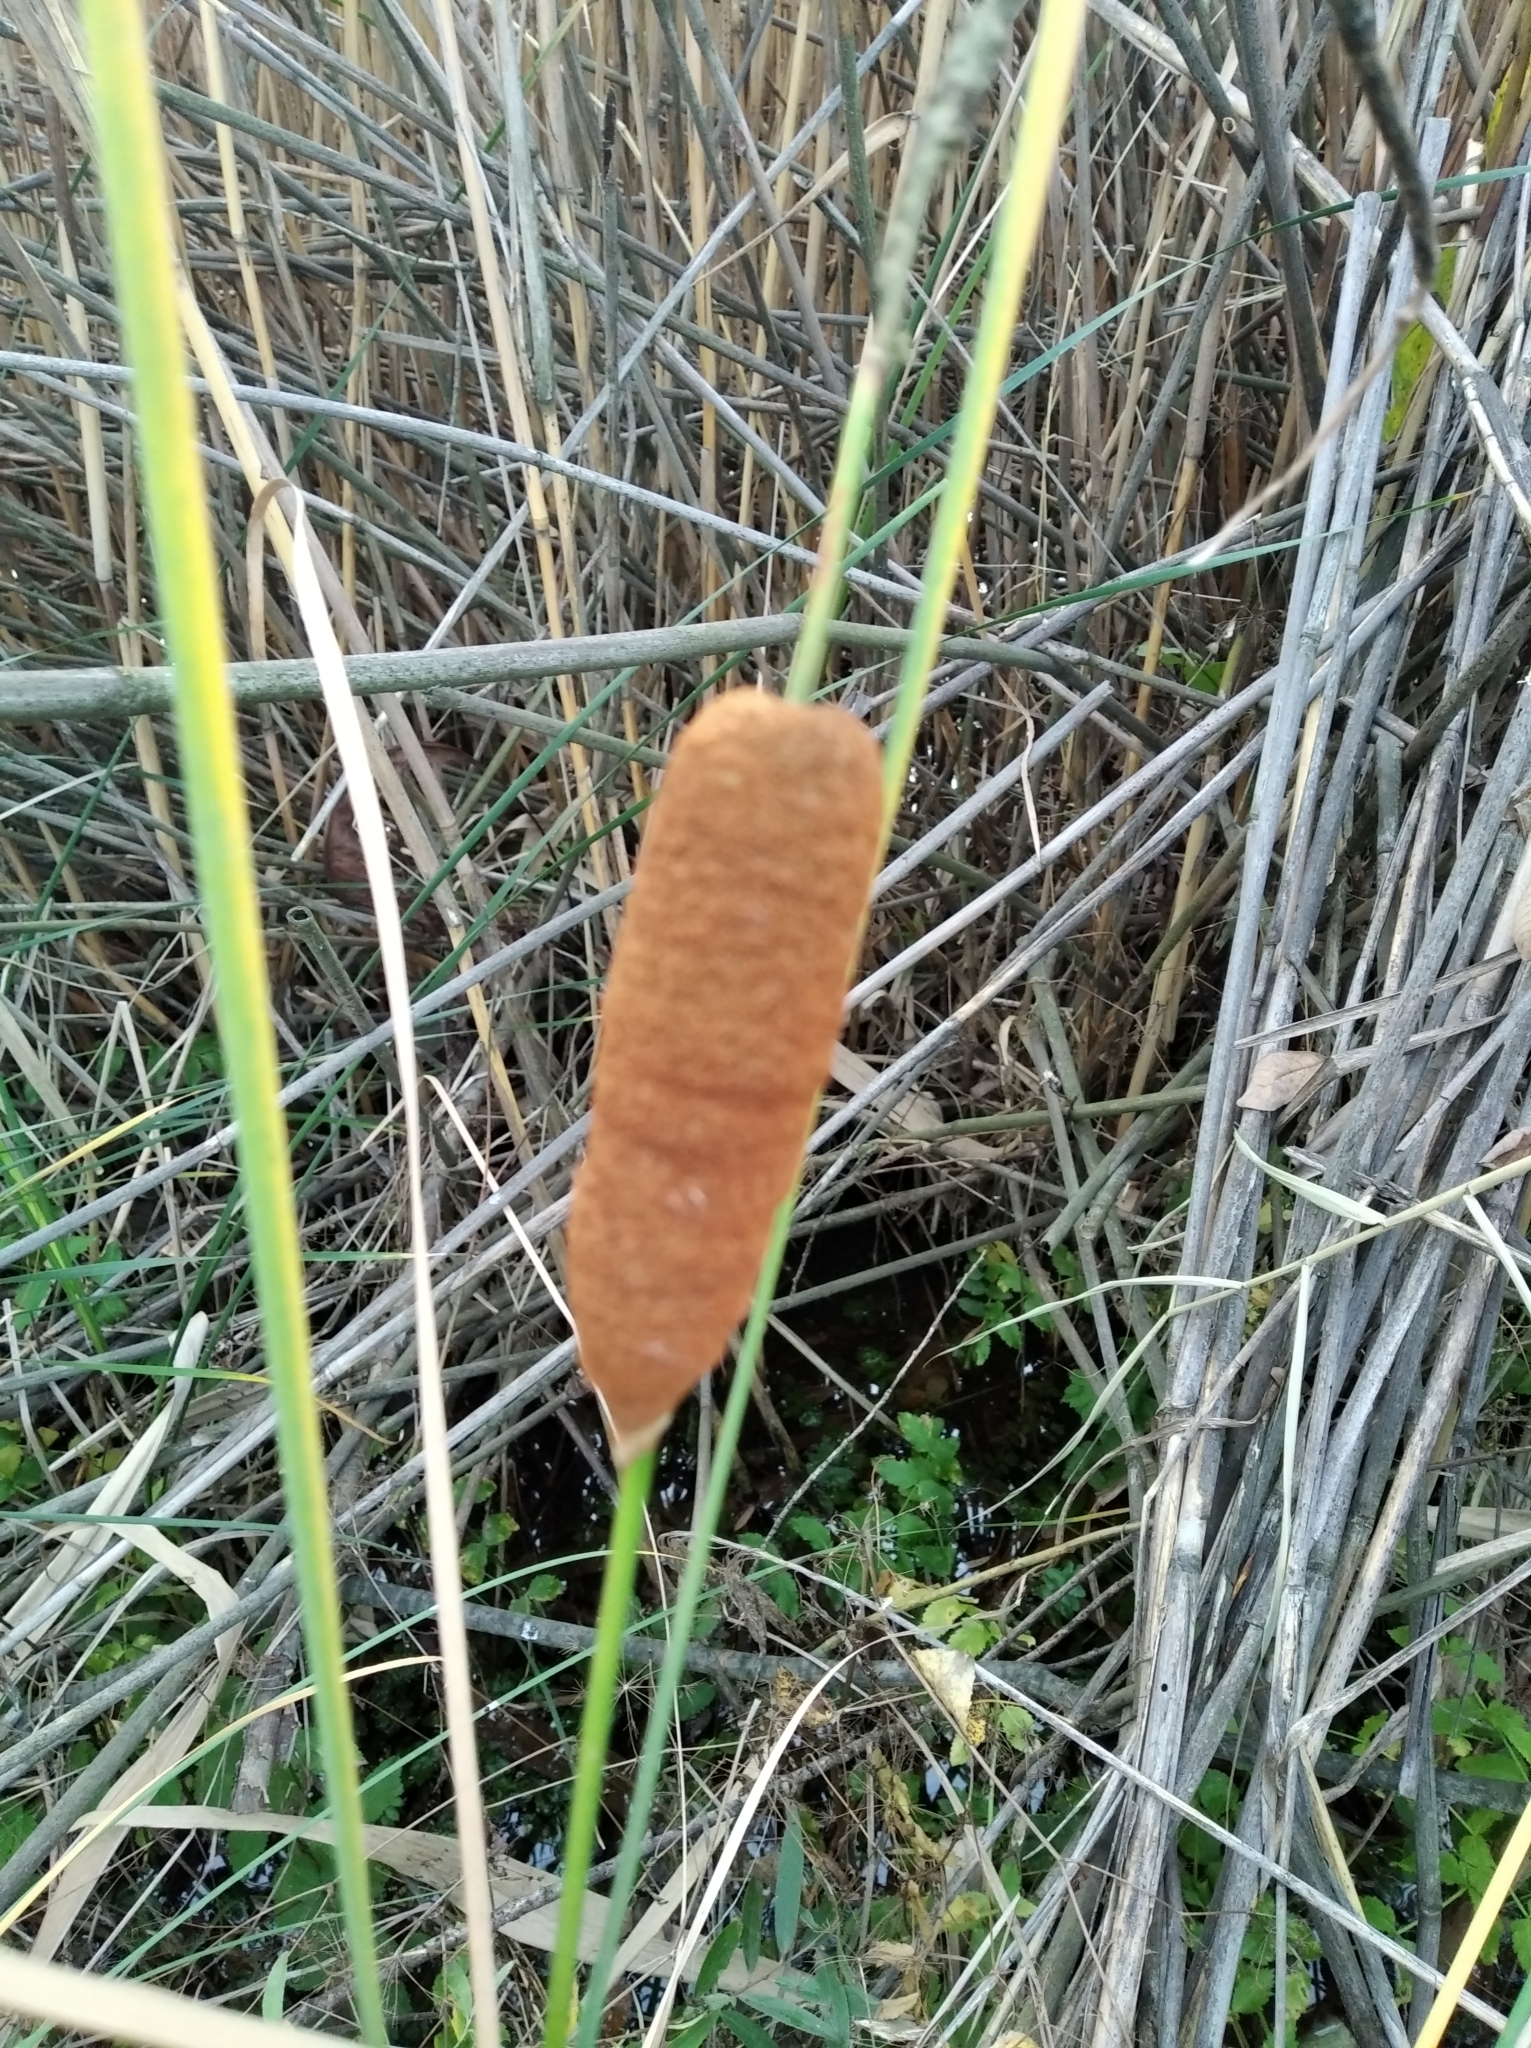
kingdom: Plantae
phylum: Tracheophyta
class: Liliopsida
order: Poales
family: Typhaceae
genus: Typha
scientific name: Typha laxmannii
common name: Laxman’s bulrush
